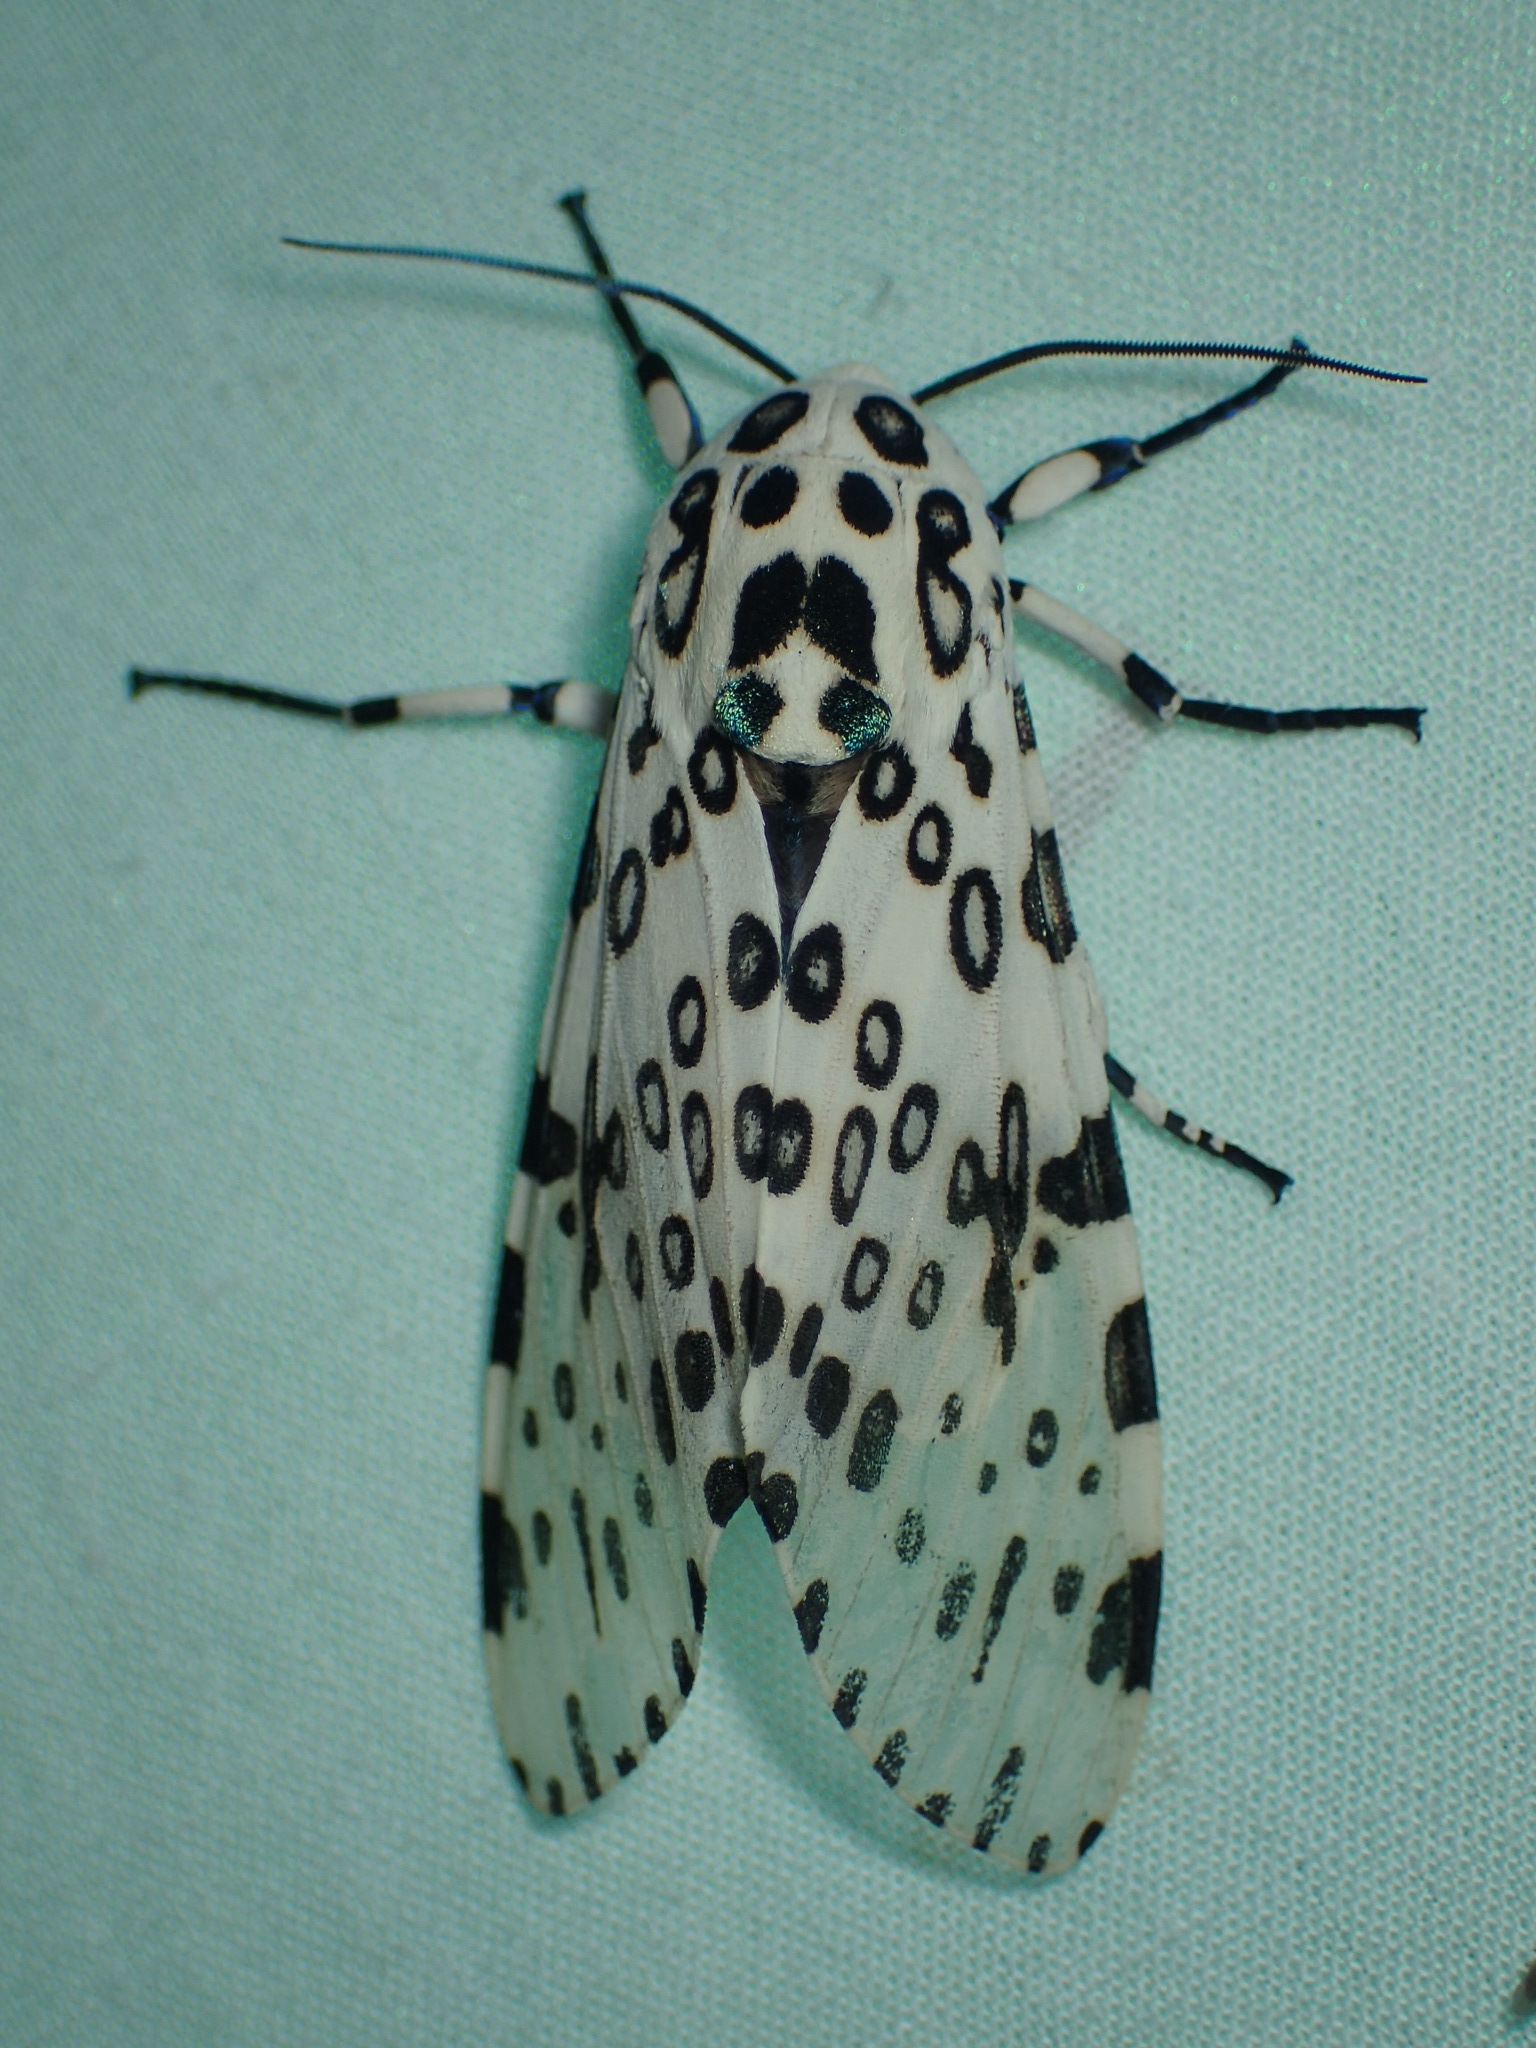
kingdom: Animalia
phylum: Arthropoda
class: Insecta
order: Lepidoptera
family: Erebidae
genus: Hypercompe
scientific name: Hypercompe scribonia
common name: Giant leopard moth
